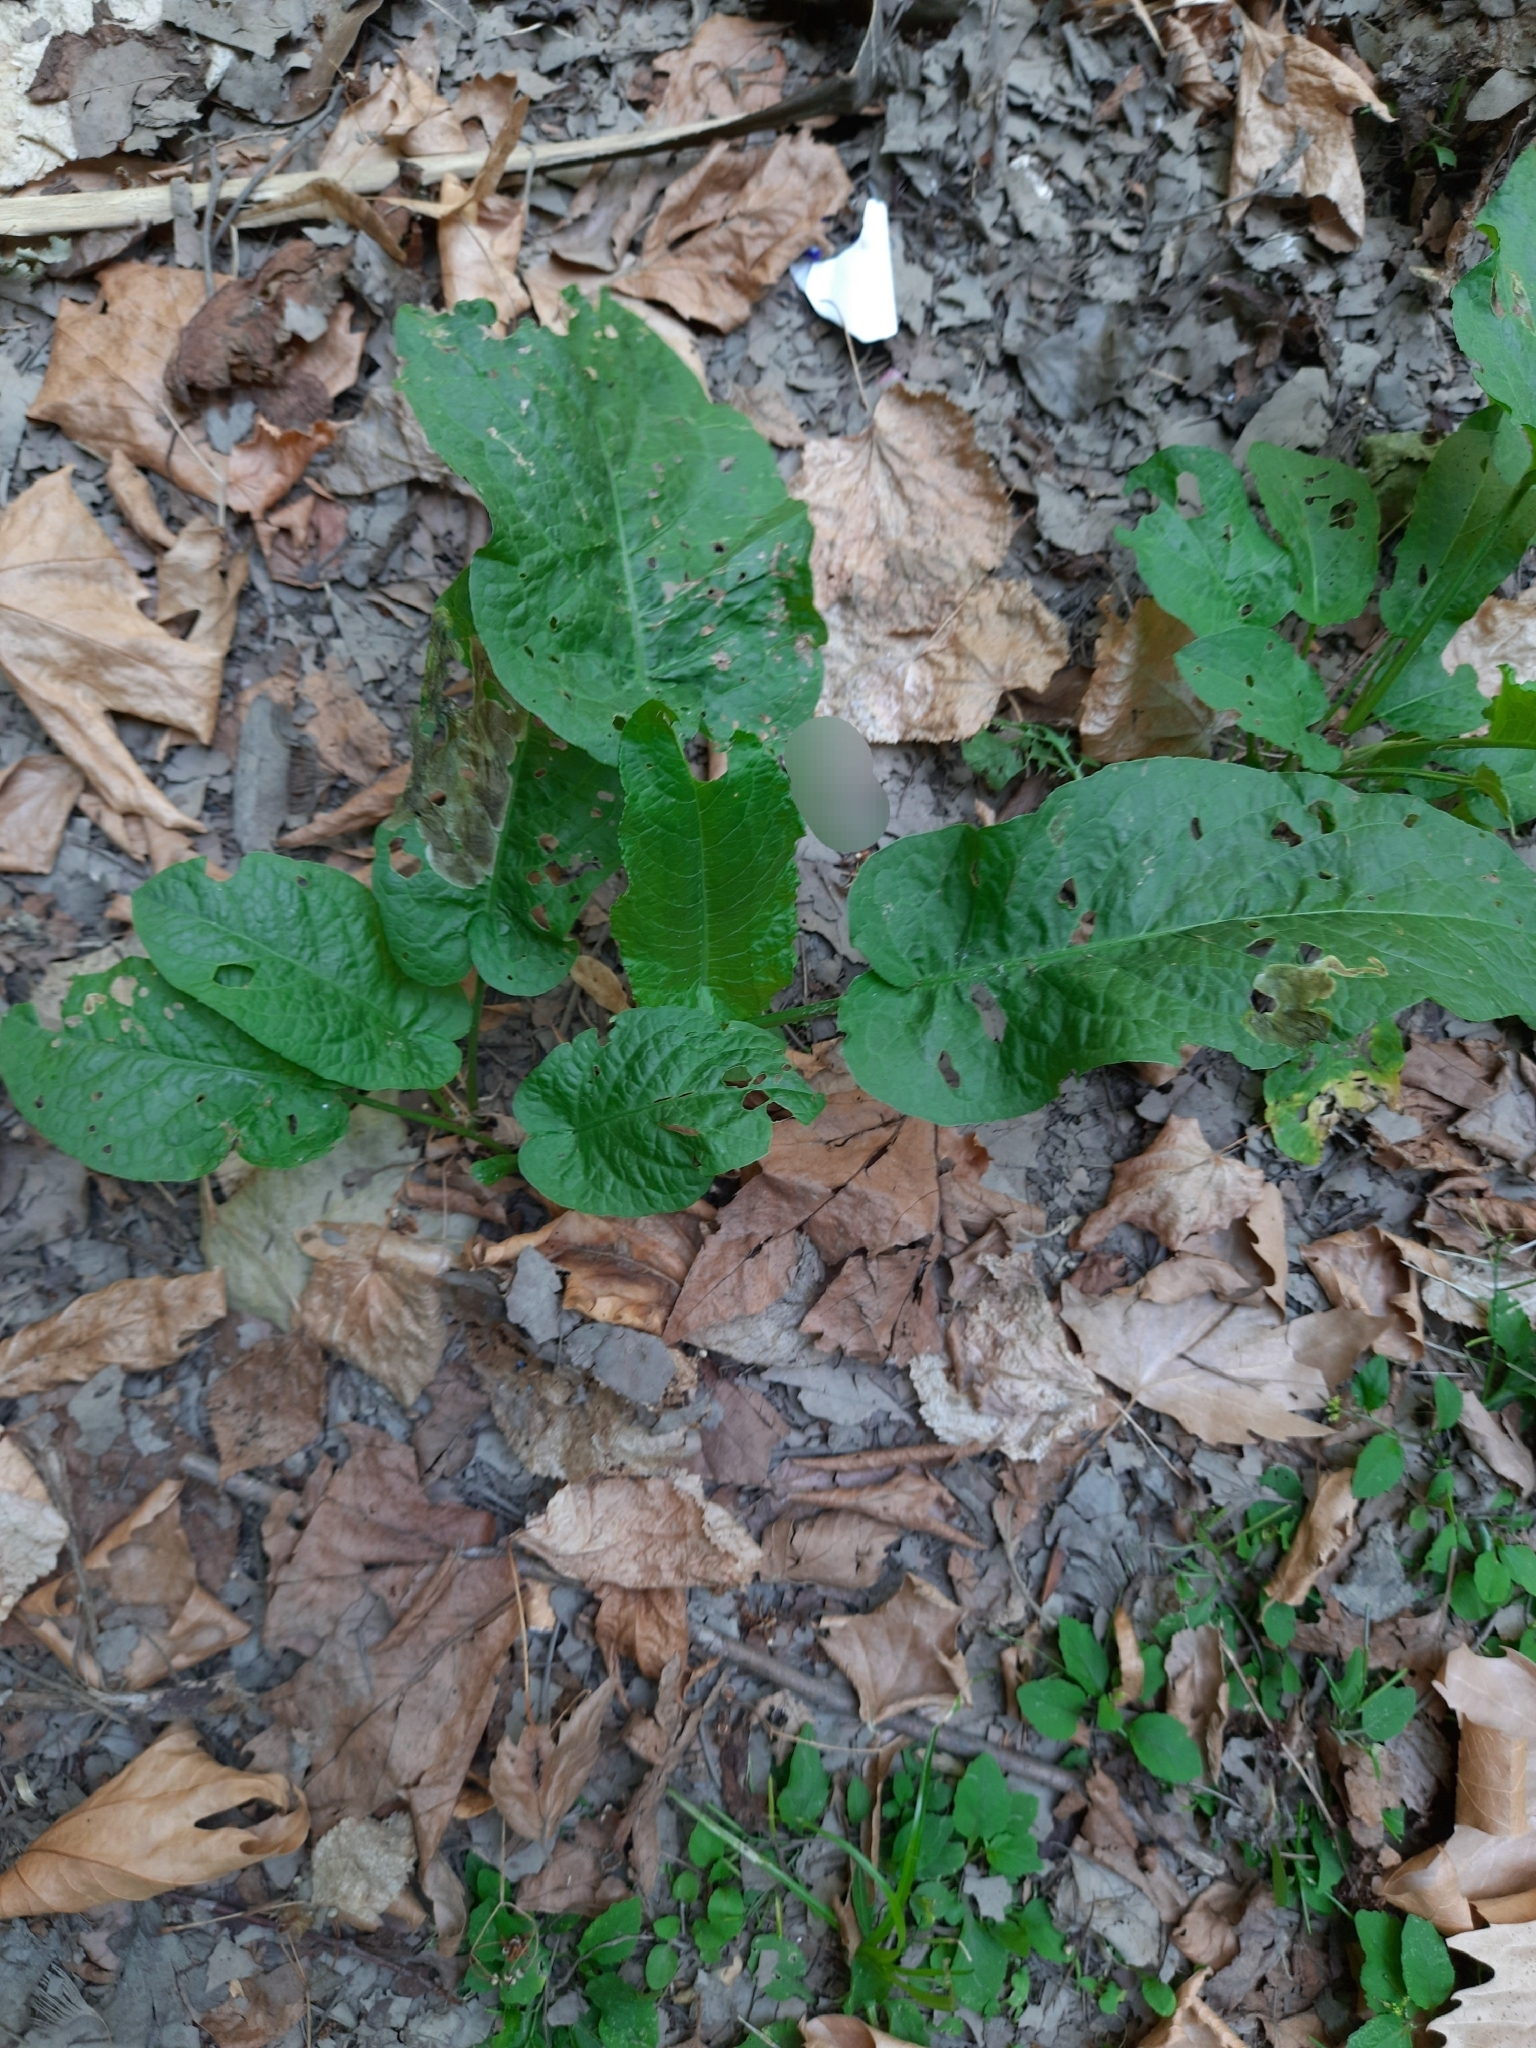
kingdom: Plantae
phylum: Tracheophyta
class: Magnoliopsida
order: Caryophyllales
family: Polygonaceae
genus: Rumex
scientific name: Rumex obtusifolius
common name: Bitter dock
